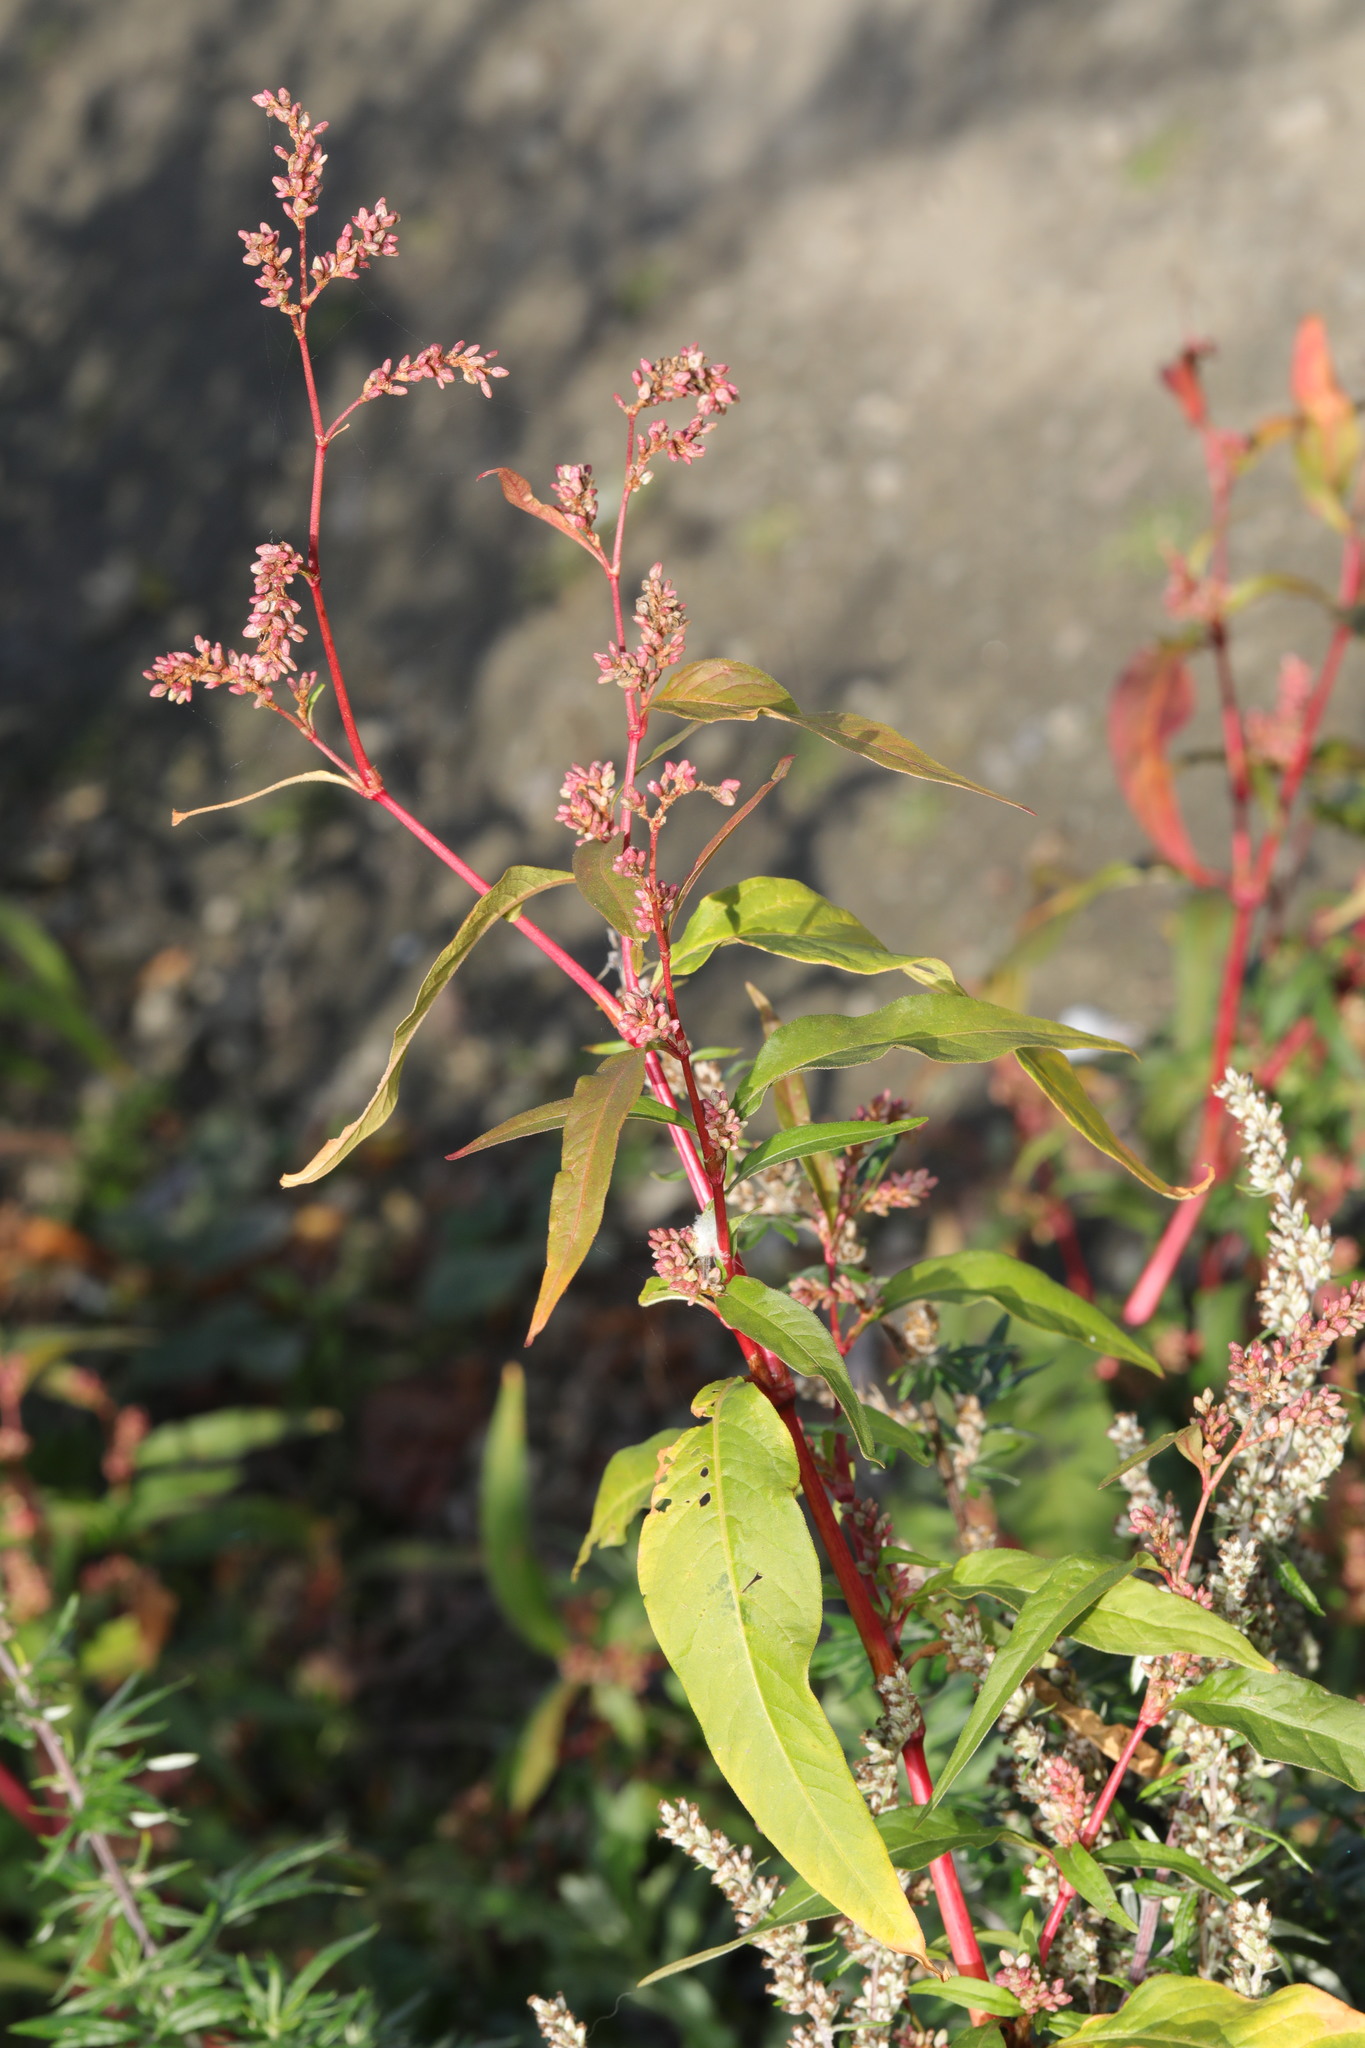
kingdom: Plantae
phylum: Tracheophyta
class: Magnoliopsida
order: Caryophyllales
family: Polygonaceae
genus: Persicaria
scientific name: Persicaria maculosa
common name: Redshank
